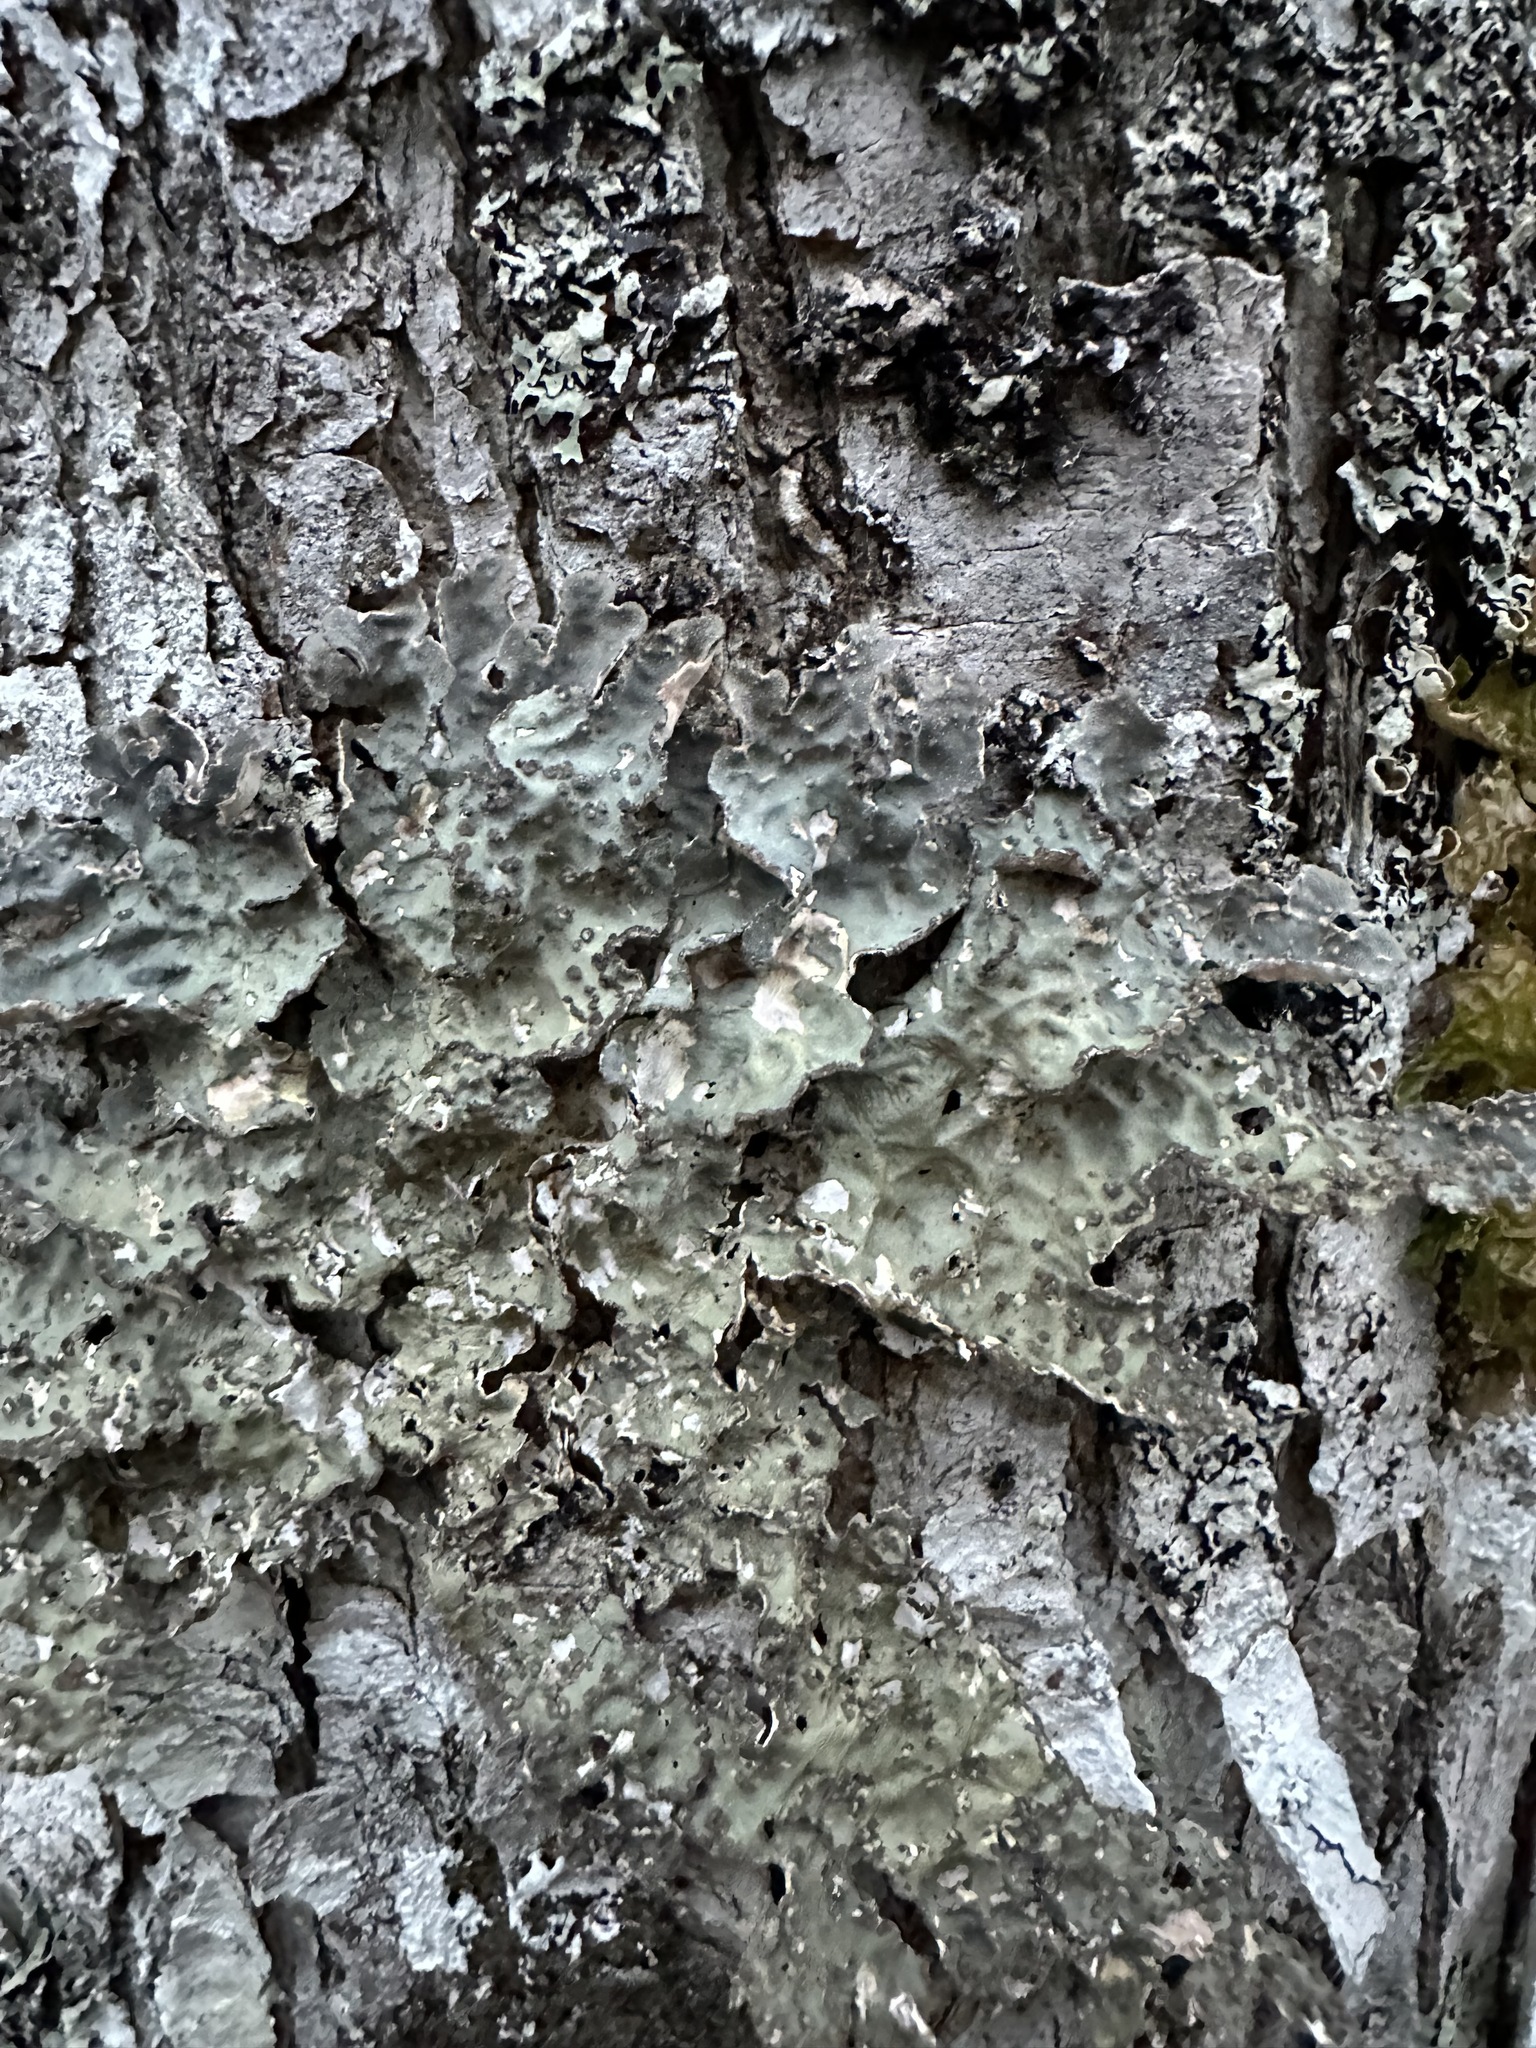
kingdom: Fungi
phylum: Ascomycota
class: Lecanoromycetes
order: Peltigerales
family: Lobariaceae
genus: Lobarina
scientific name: Lobarina scrobiculata
